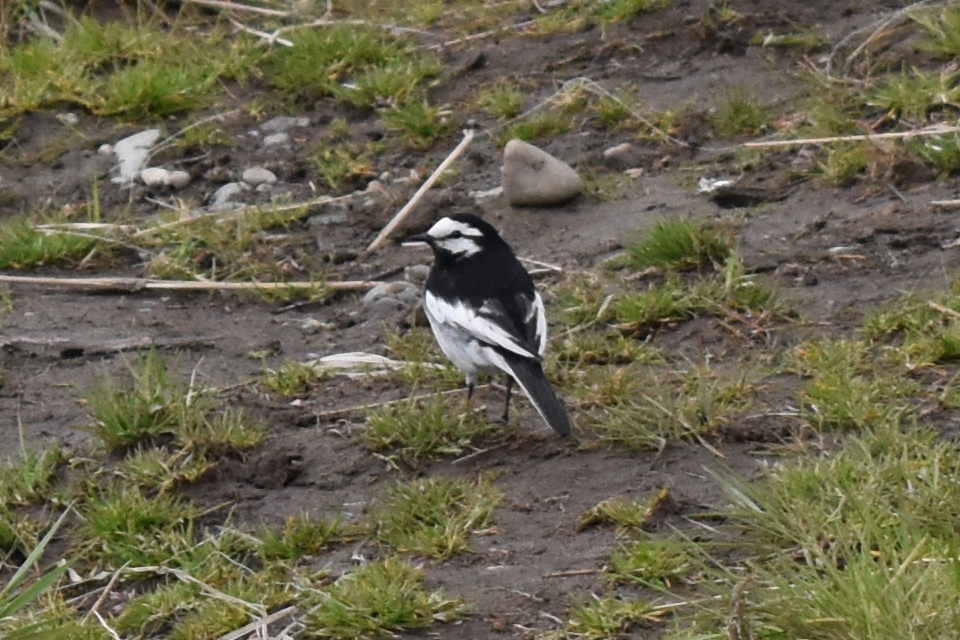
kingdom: Animalia
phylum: Chordata
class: Aves
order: Passeriformes
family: Motacillidae
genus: Motacilla
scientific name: Motacilla alba
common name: White wagtail
